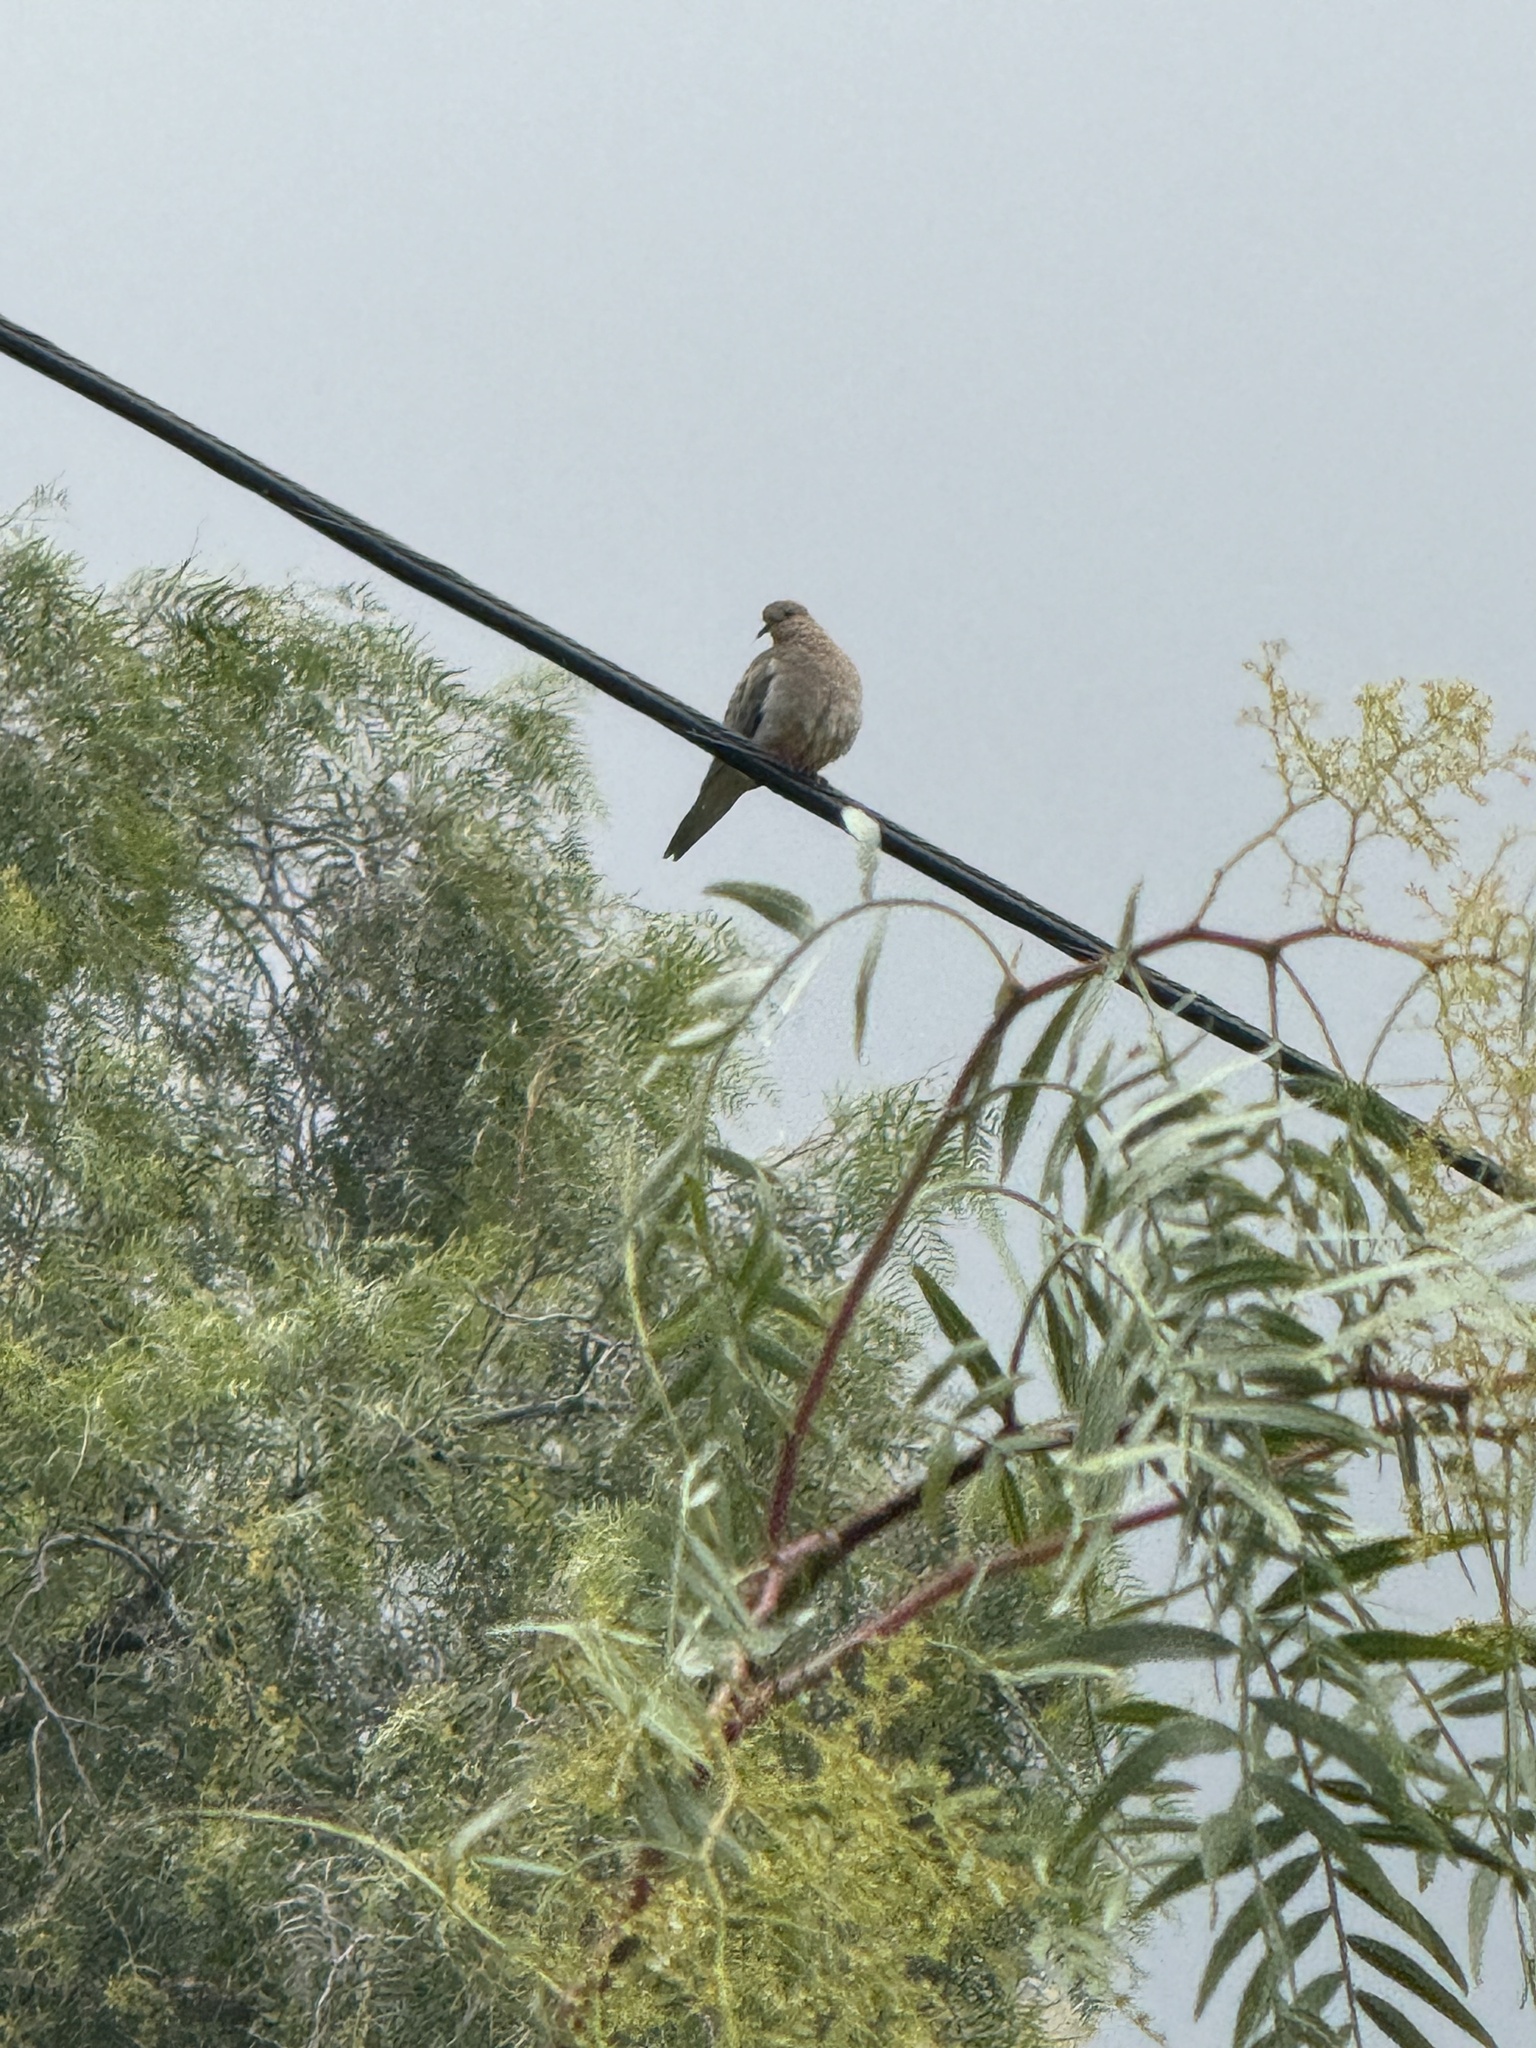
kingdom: Animalia
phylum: Chordata
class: Aves
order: Columbiformes
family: Columbidae
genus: Streptopelia
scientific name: Streptopelia decaocto
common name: Eurasian collared dove
